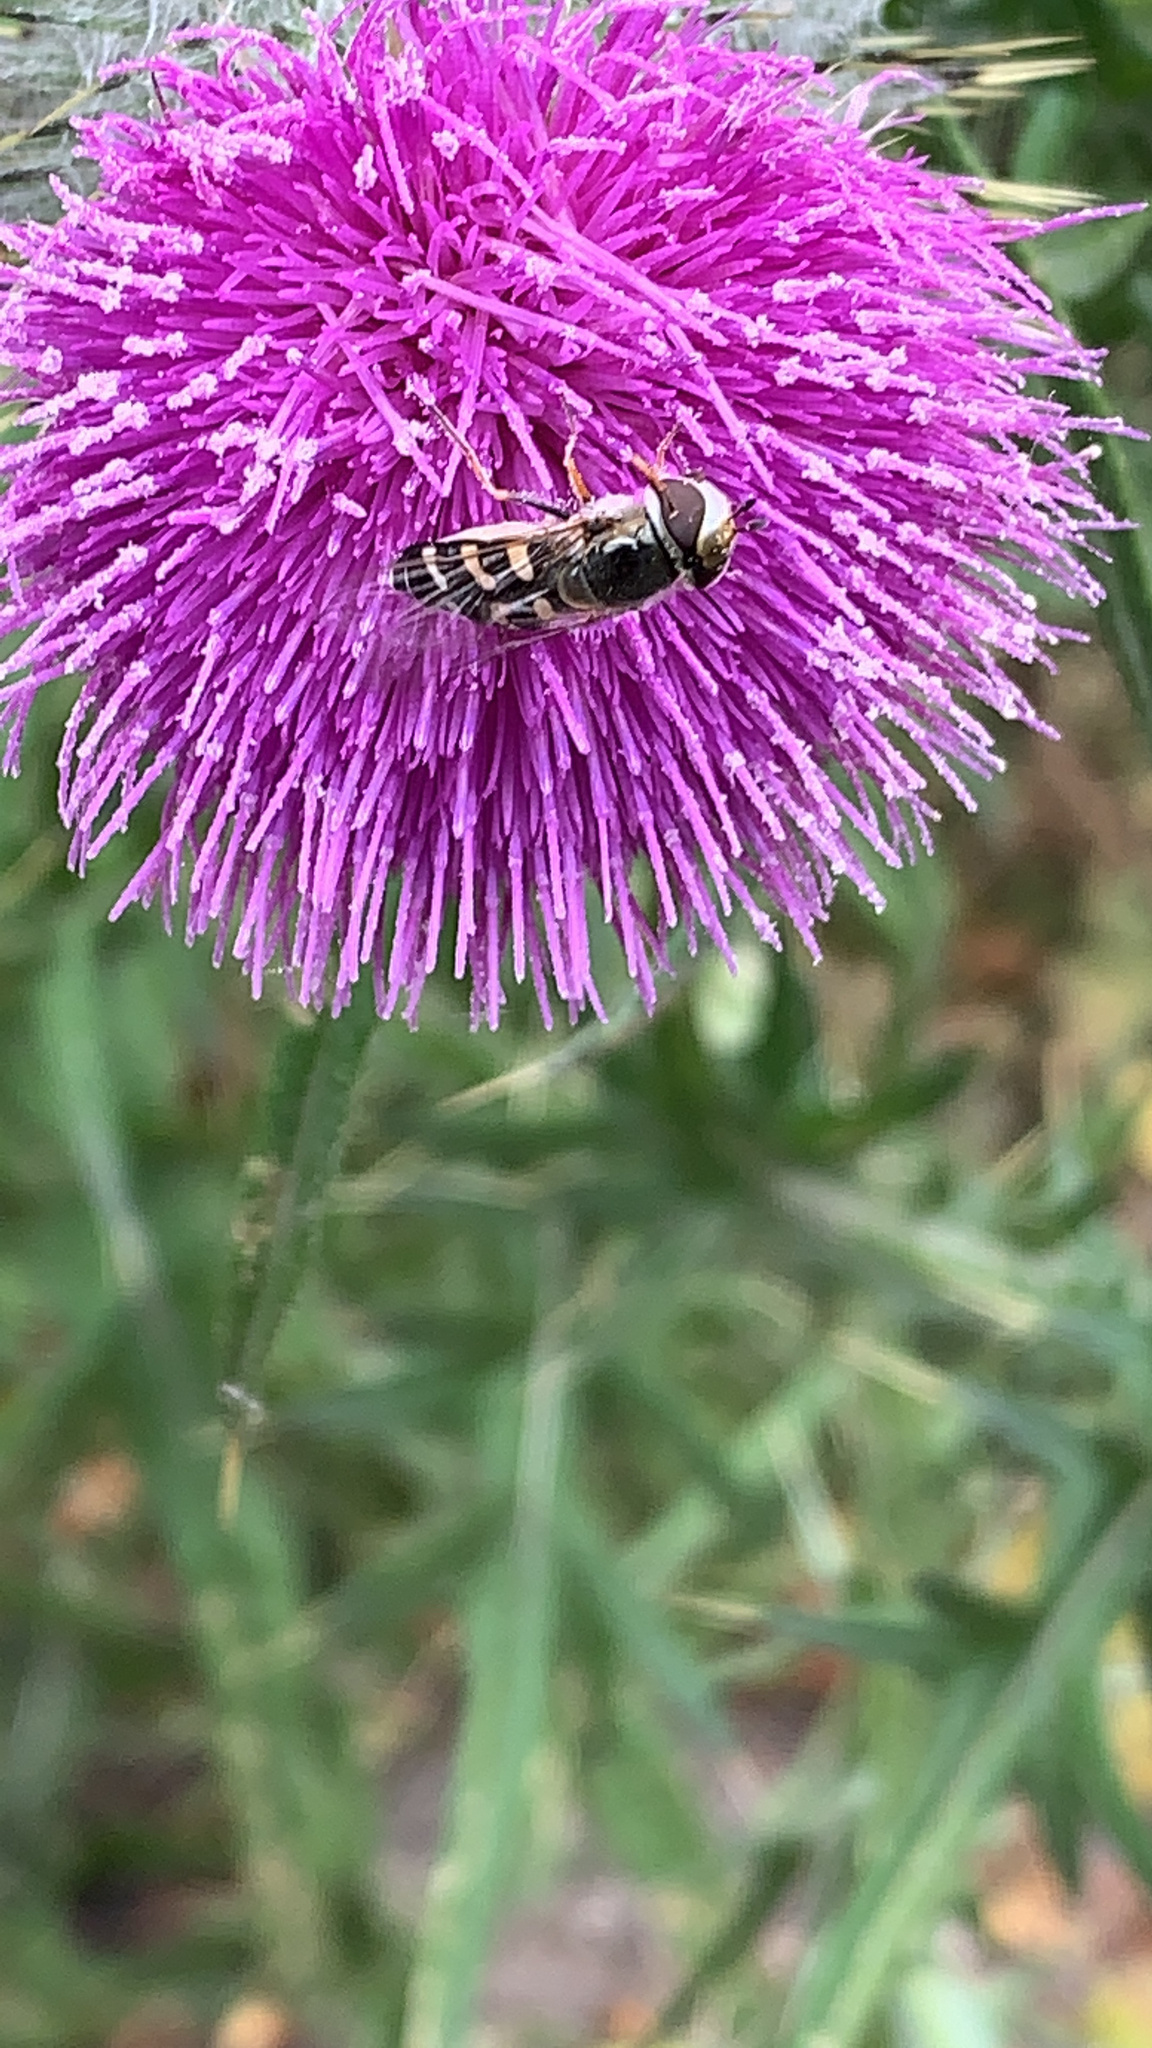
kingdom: Animalia
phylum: Arthropoda
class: Insecta
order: Diptera
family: Syrphidae
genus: Scaeva
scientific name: Scaeva pyrastri
